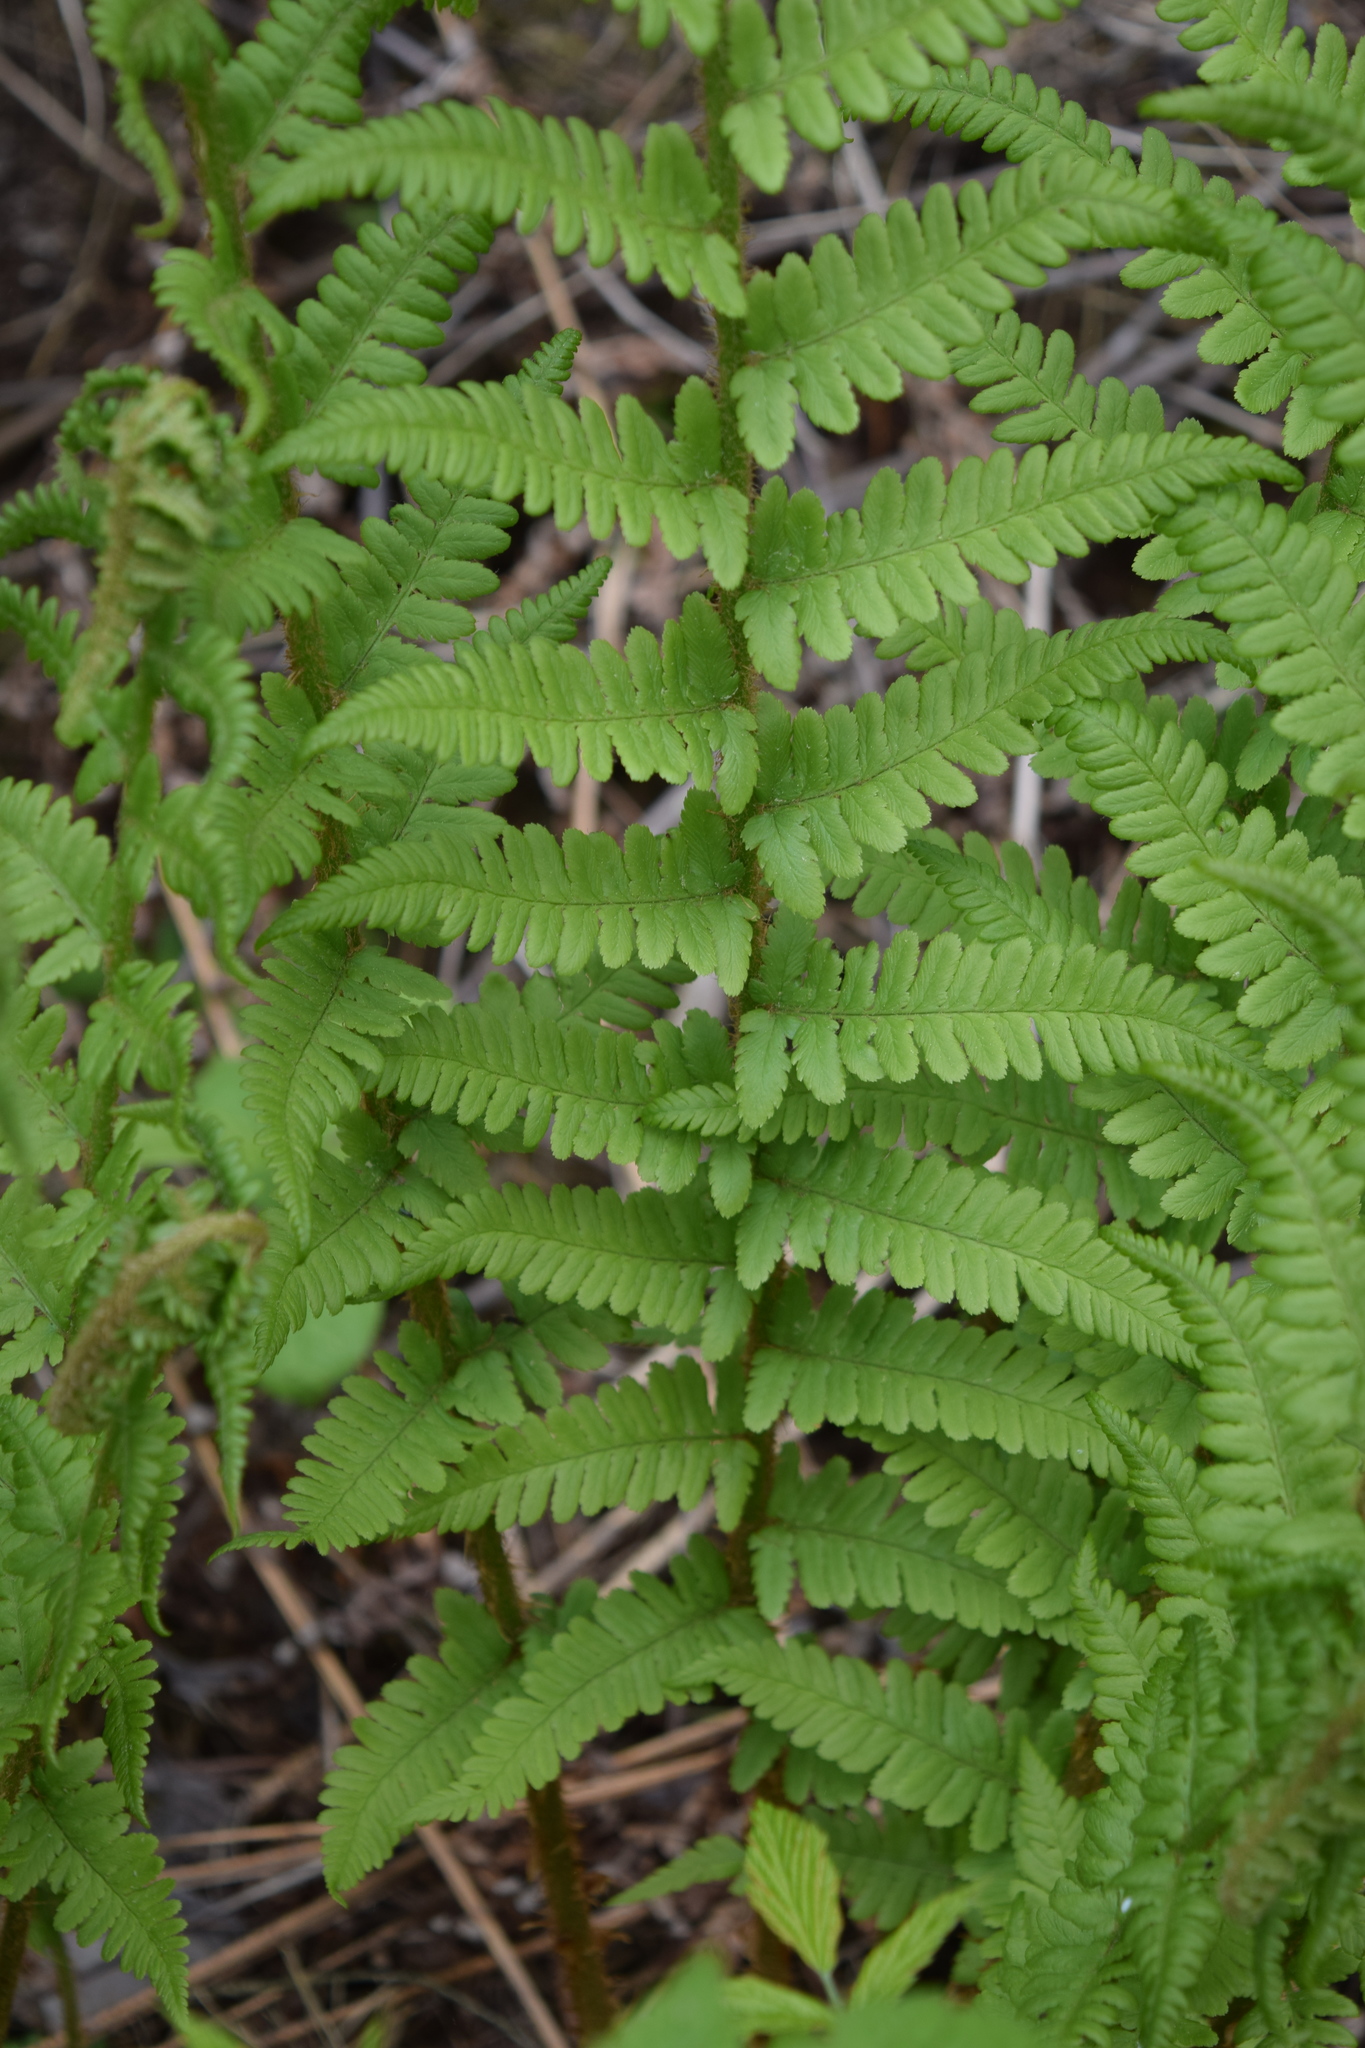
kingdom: Plantae
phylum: Tracheophyta
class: Polypodiopsida
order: Polypodiales
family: Dryopteridaceae
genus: Dryopteris
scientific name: Dryopteris filix-mas
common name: Male fern
